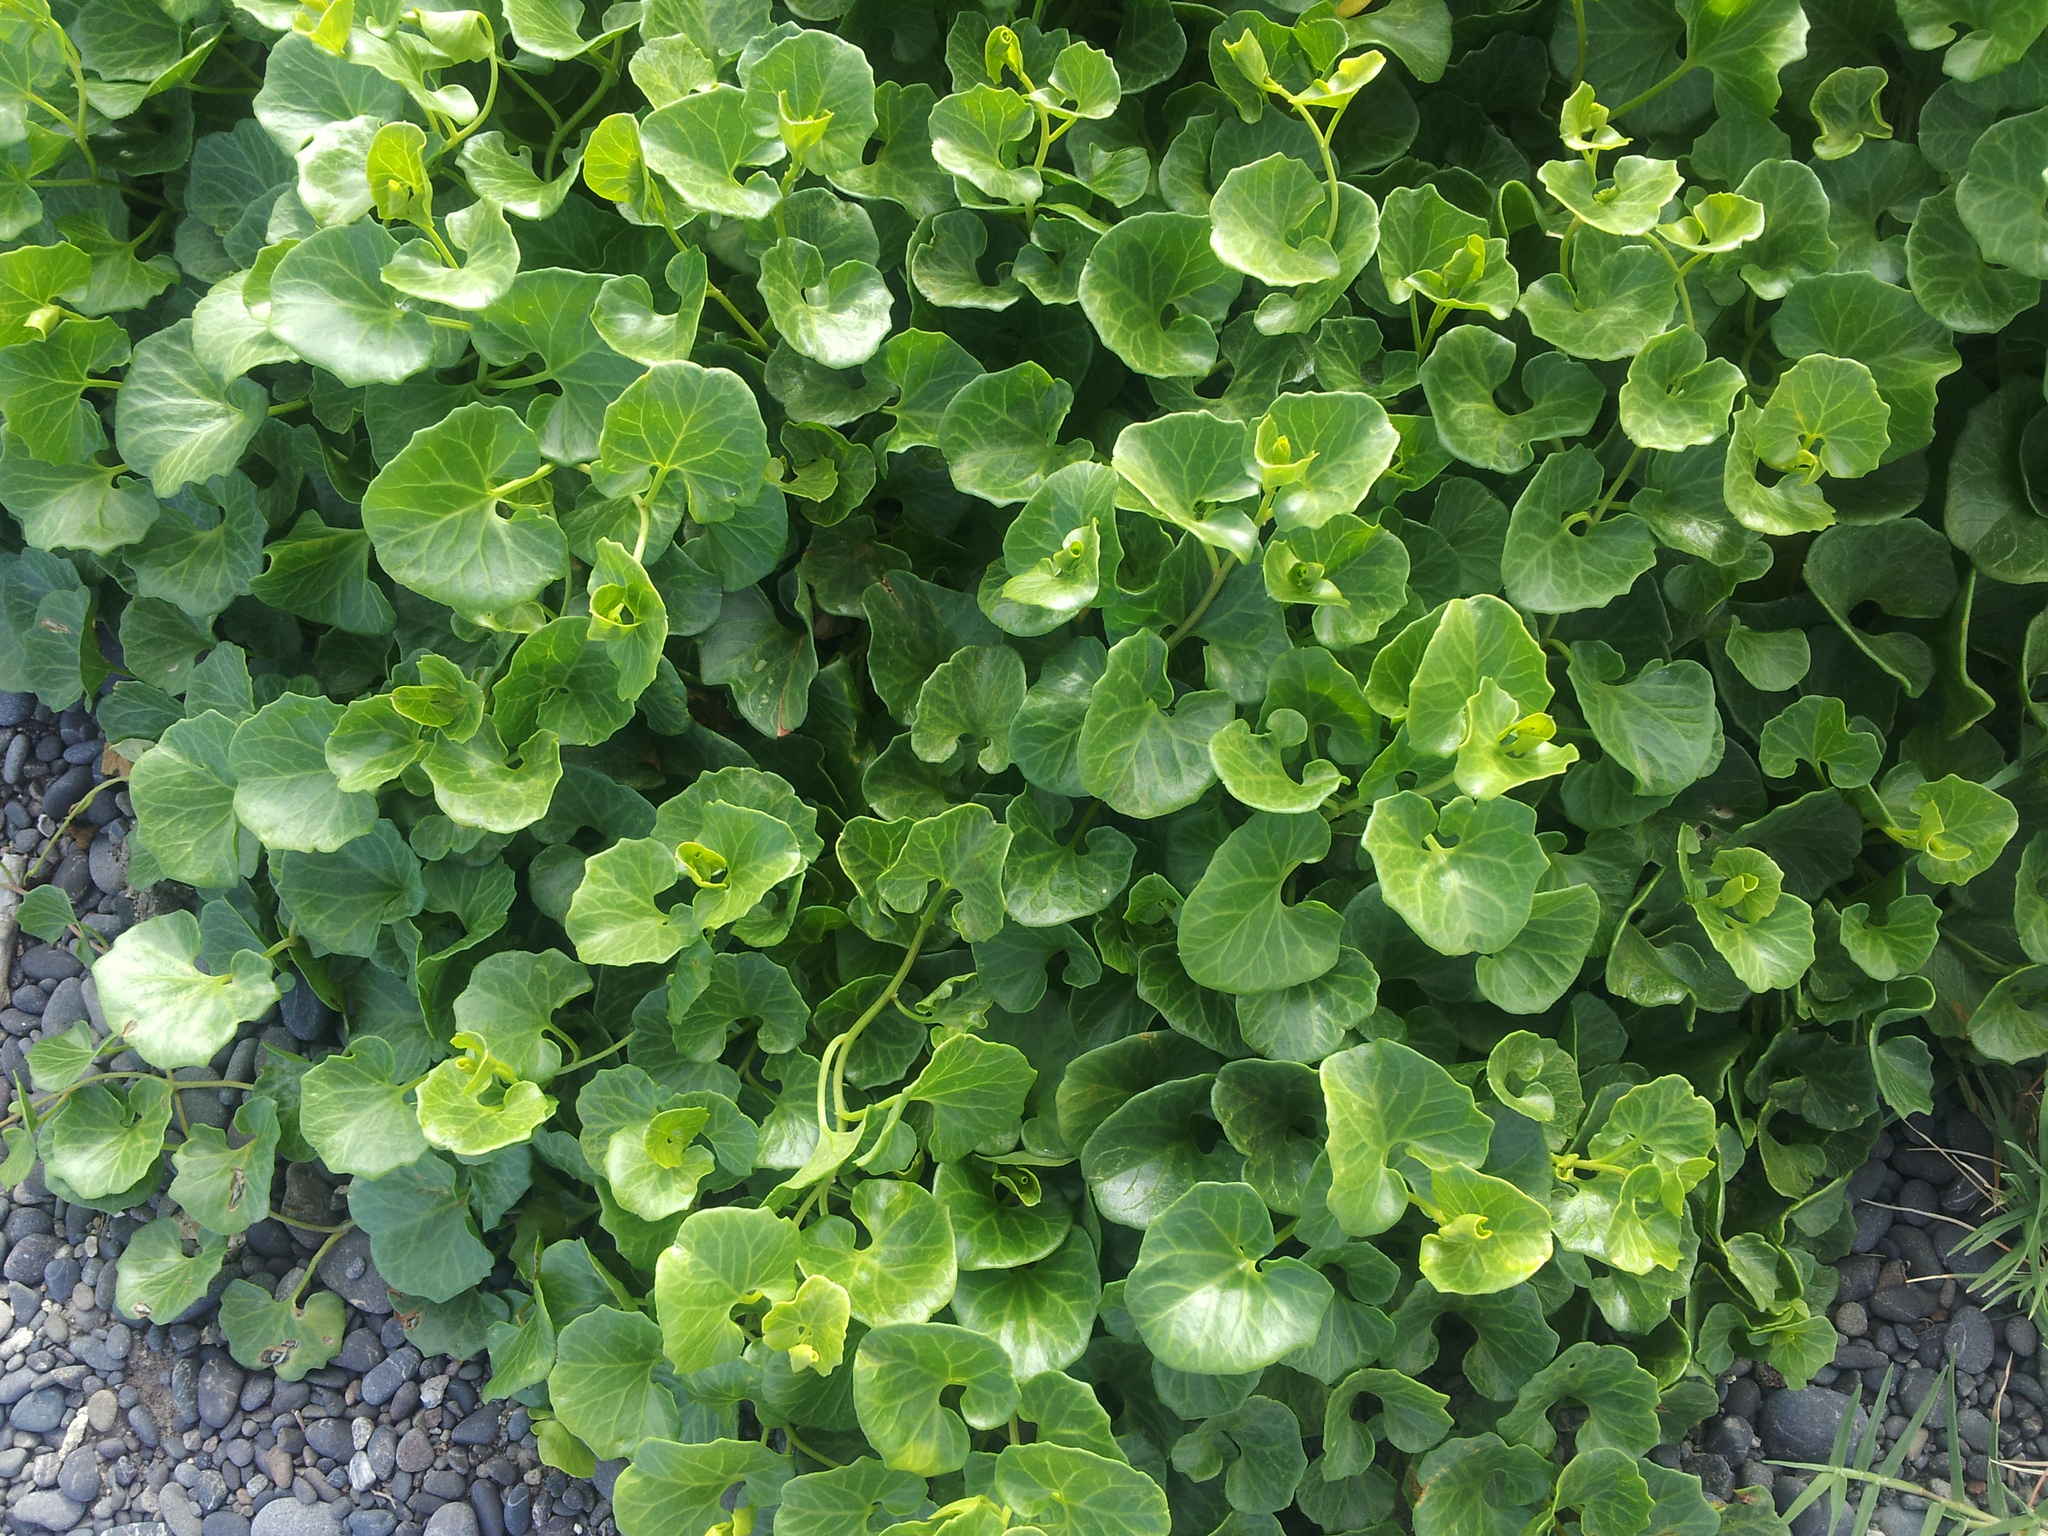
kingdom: Plantae
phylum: Tracheophyta
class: Magnoliopsida
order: Solanales
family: Convolvulaceae
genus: Calystegia
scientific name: Calystegia soldanella
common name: Sea bindweed
